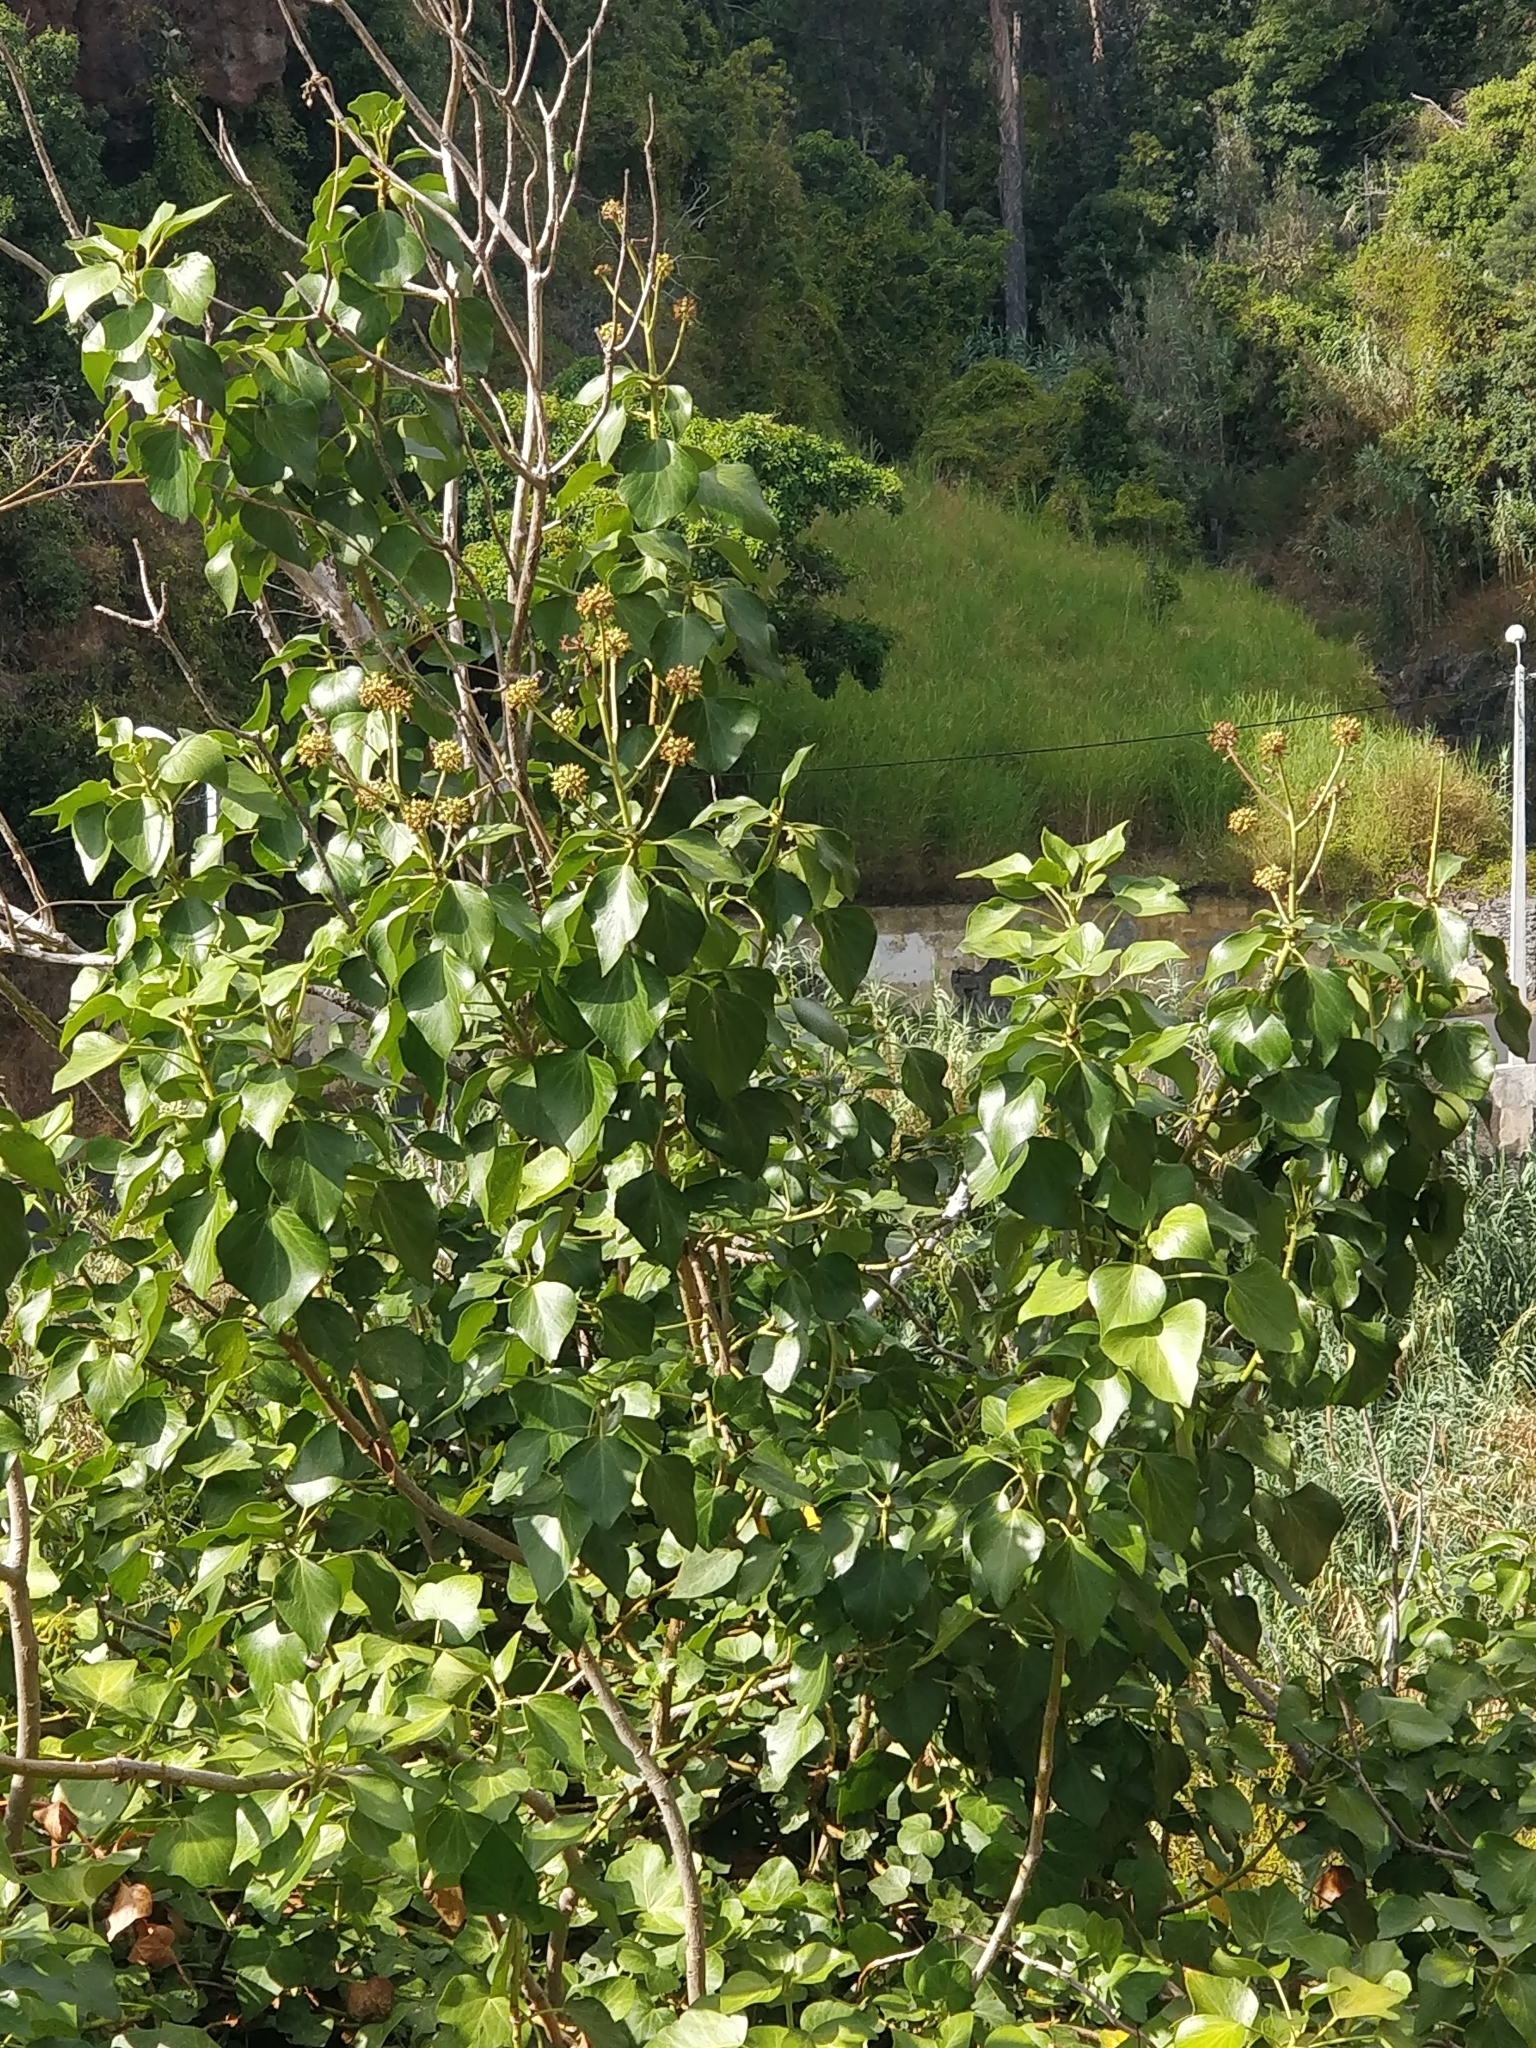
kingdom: Plantae
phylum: Tracheophyta
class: Magnoliopsida
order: Apiales
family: Araliaceae
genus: Hedera
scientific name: Hedera maderensis
